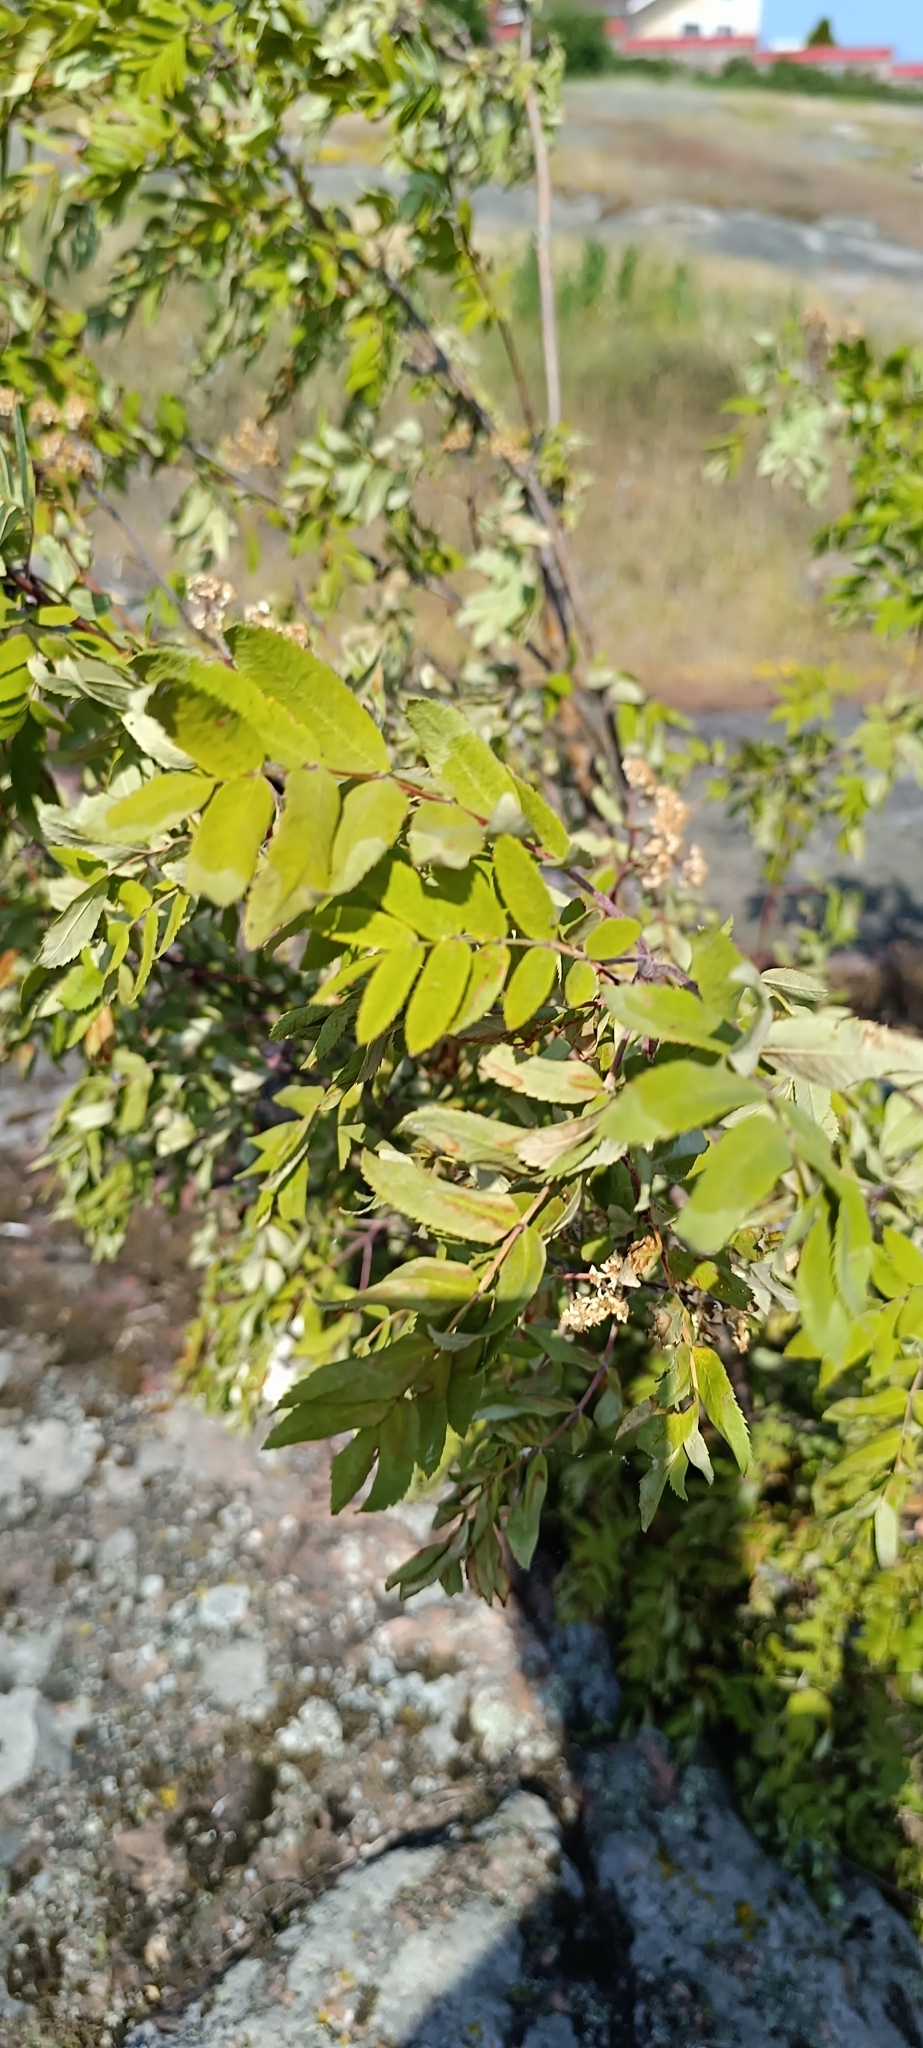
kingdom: Plantae
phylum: Tracheophyta
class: Magnoliopsida
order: Rosales
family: Rosaceae
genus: Sorbus
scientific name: Sorbus aucuparia
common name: Rowan
